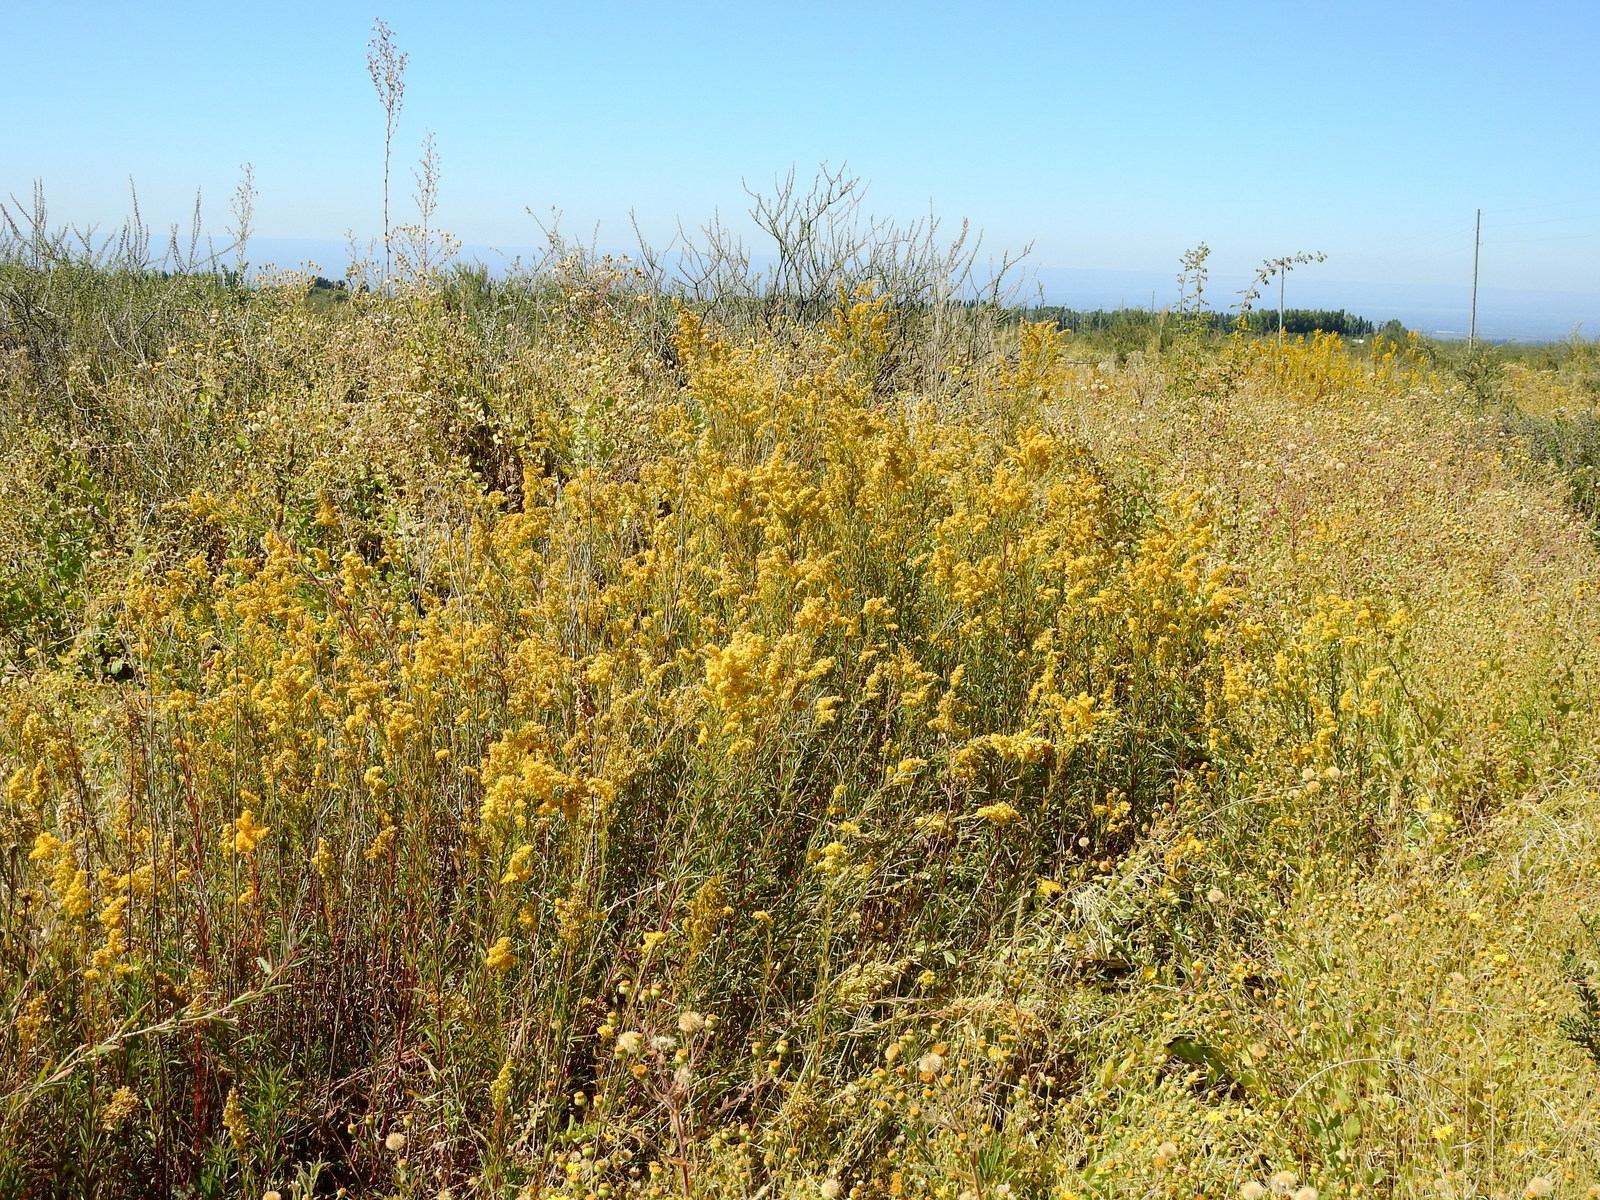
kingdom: Plantae
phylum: Tracheophyta
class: Magnoliopsida
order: Asterales
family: Asteraceae
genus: Solidago
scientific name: Solidago chilensis
